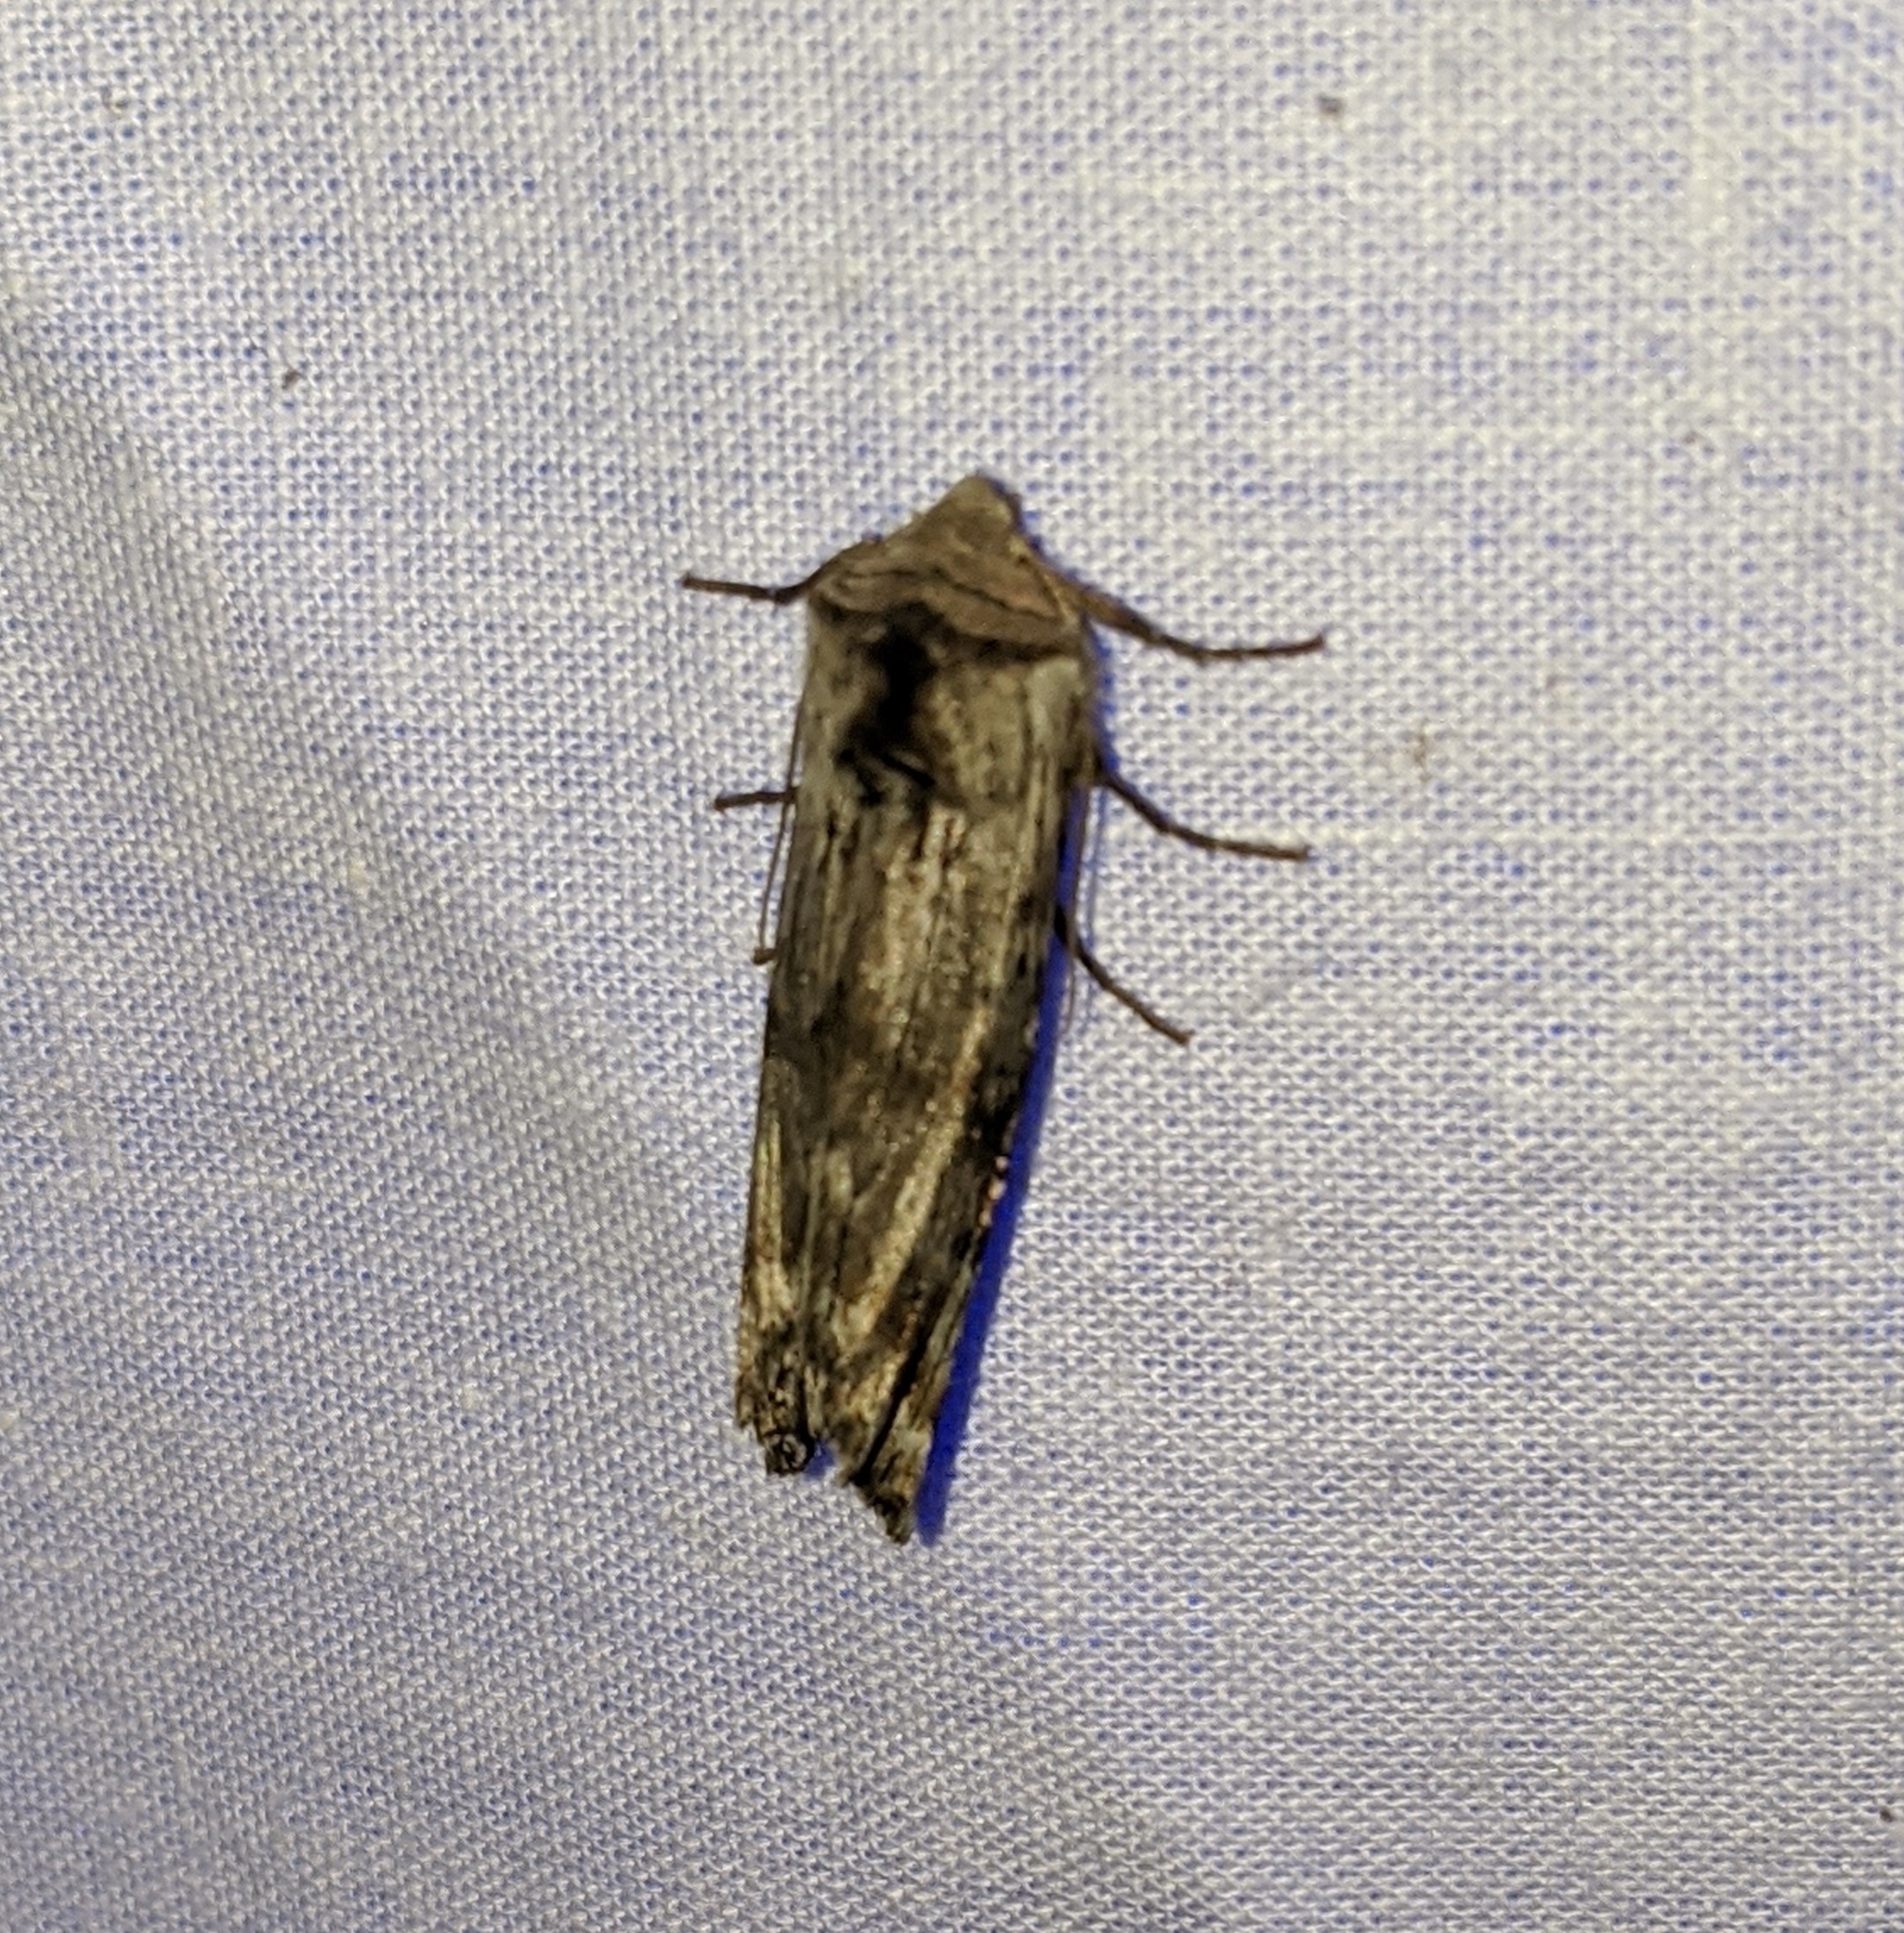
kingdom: Animalia
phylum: Arthropoda
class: Insecta
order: Lepidoptera
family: Noctuidae
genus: Xylena
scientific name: Xylena germana
